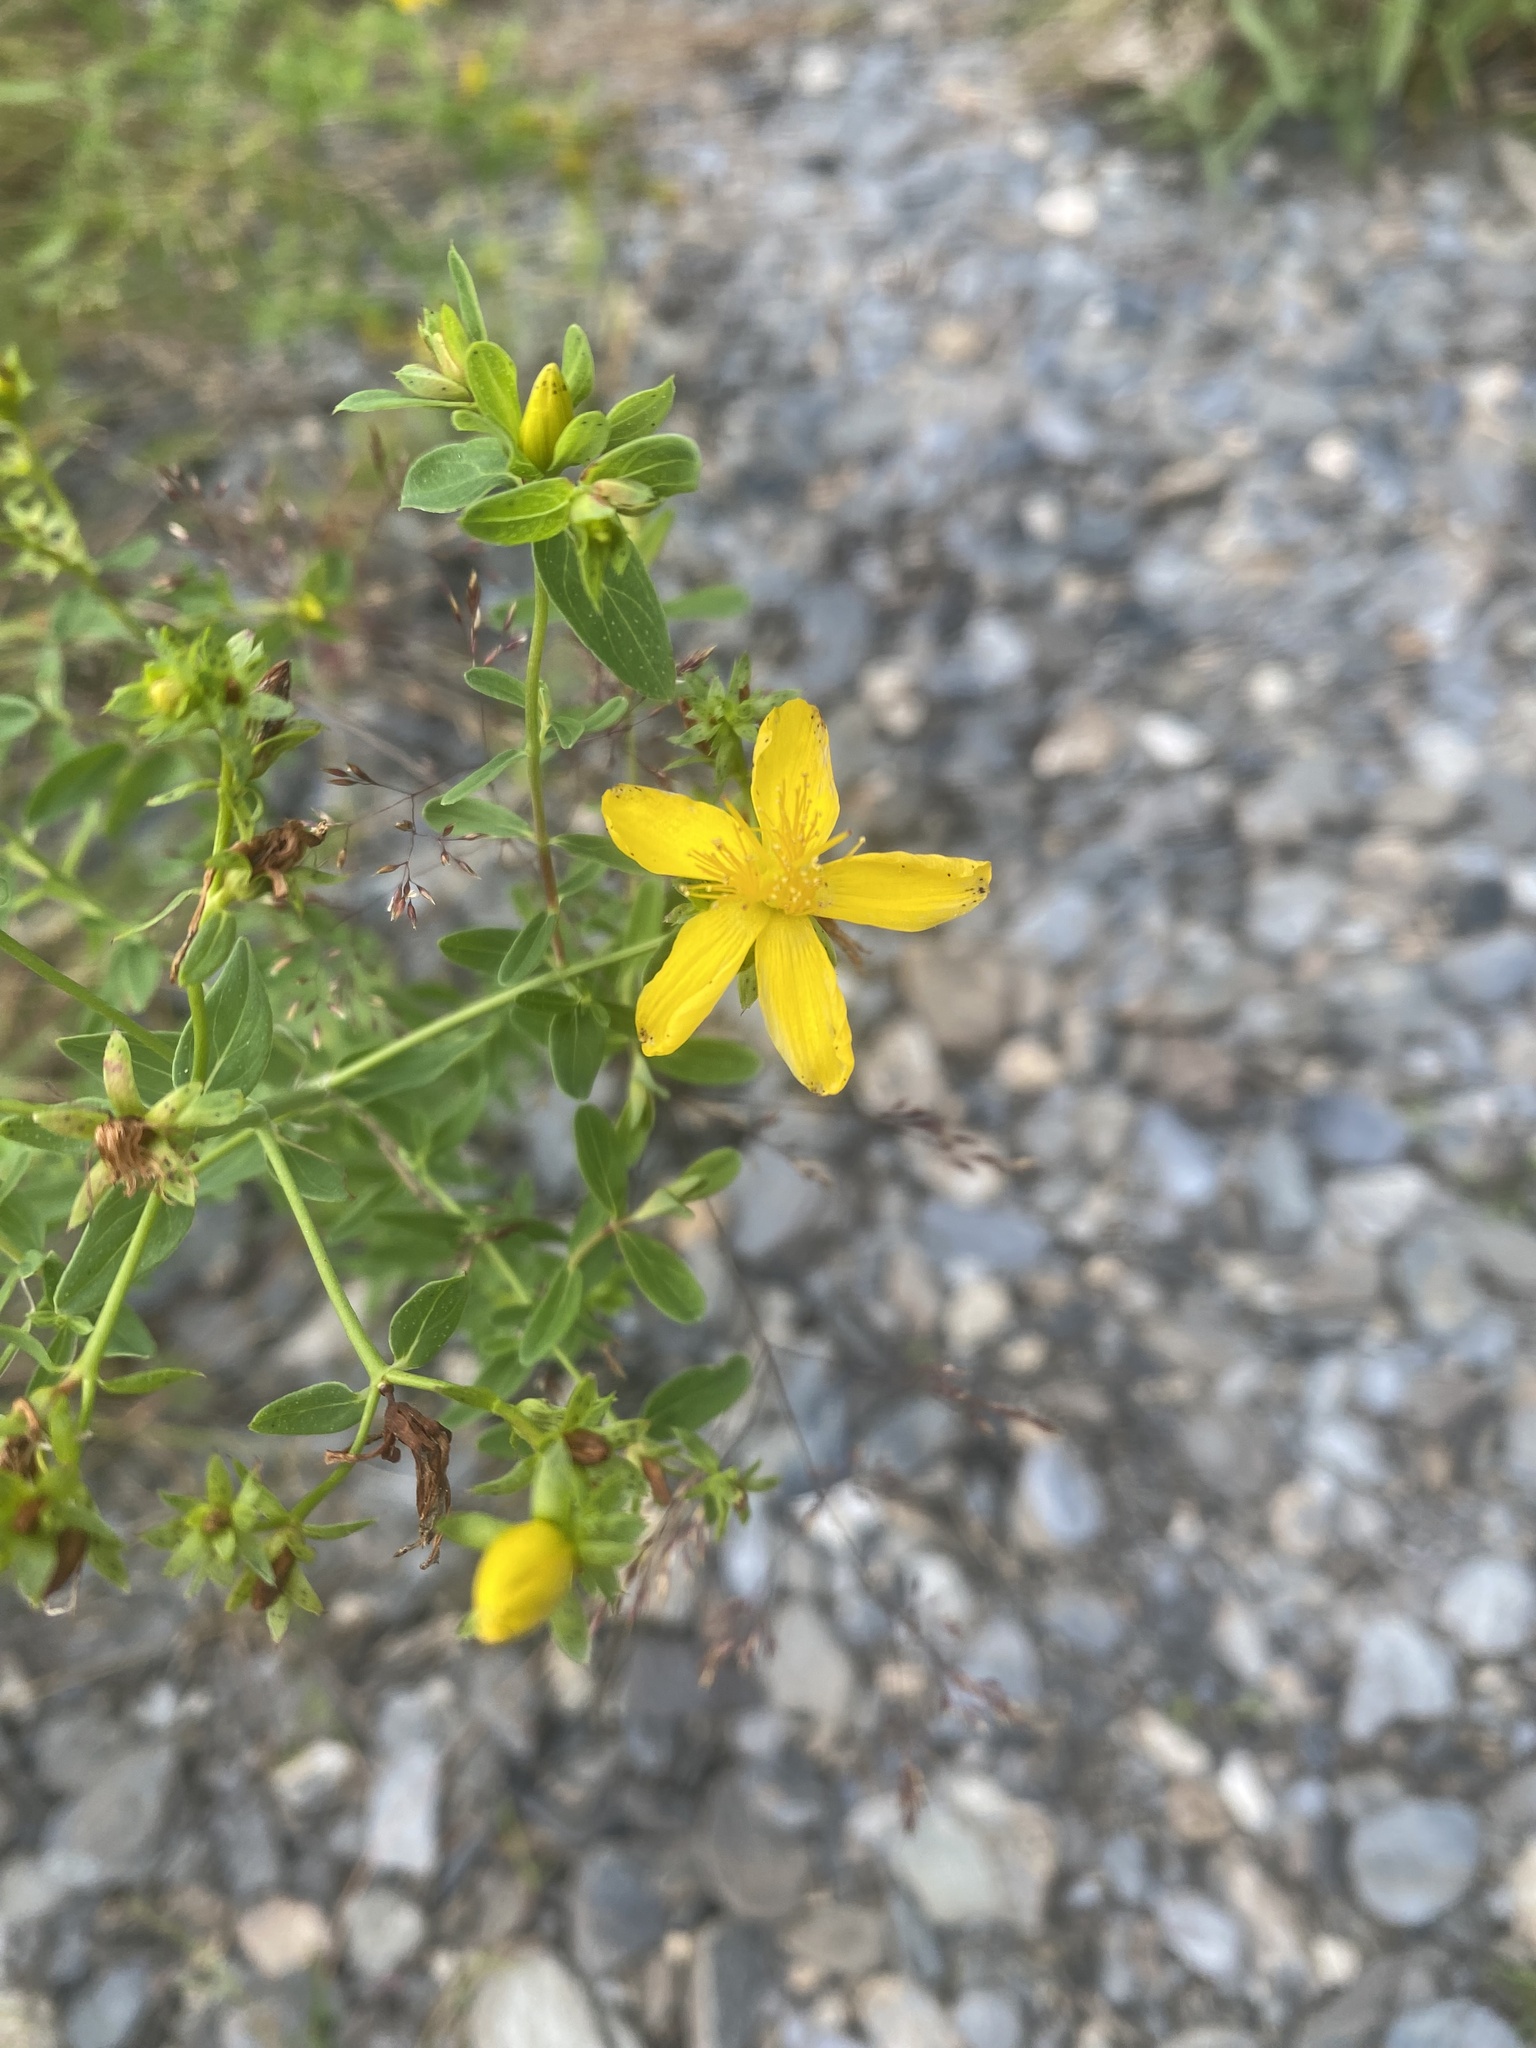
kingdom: Plantae
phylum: Tracheophyta
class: Magnoliopsida
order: Malpighiales
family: Hypericaceae
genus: Hypericum
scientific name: Hypericum perforatum
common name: Common st. johnswort
